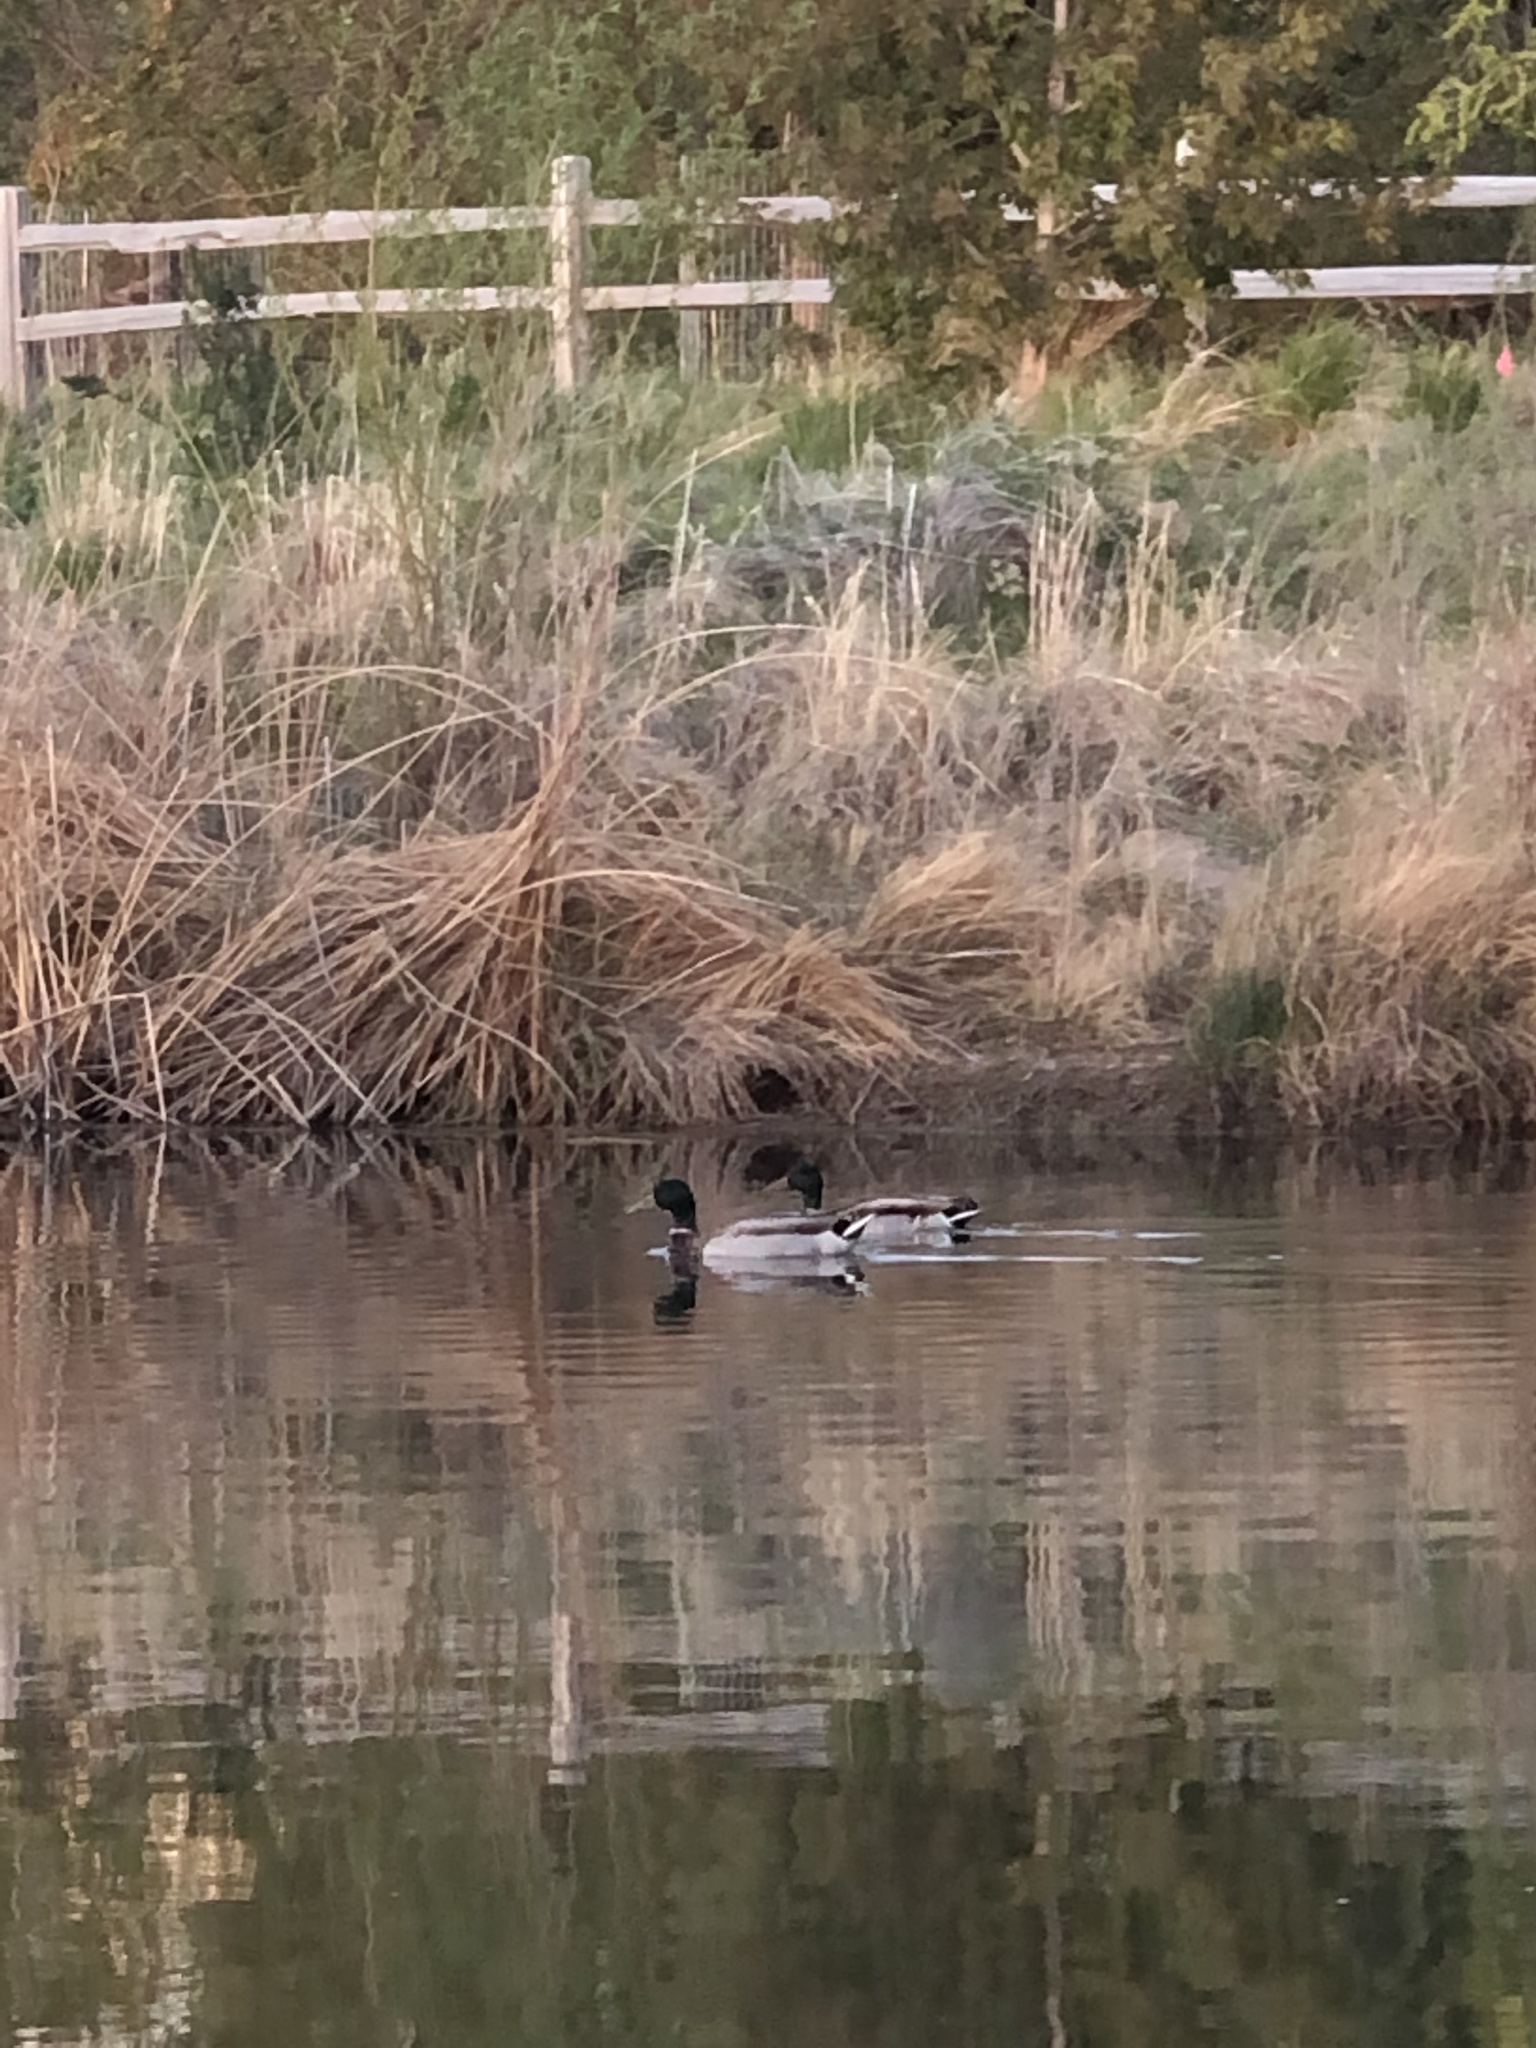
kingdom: Animalia
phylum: Chordata
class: Aves
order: Anseriformes
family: Anatidae
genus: Anas
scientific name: Anas platyrhynchos
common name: Mallard
